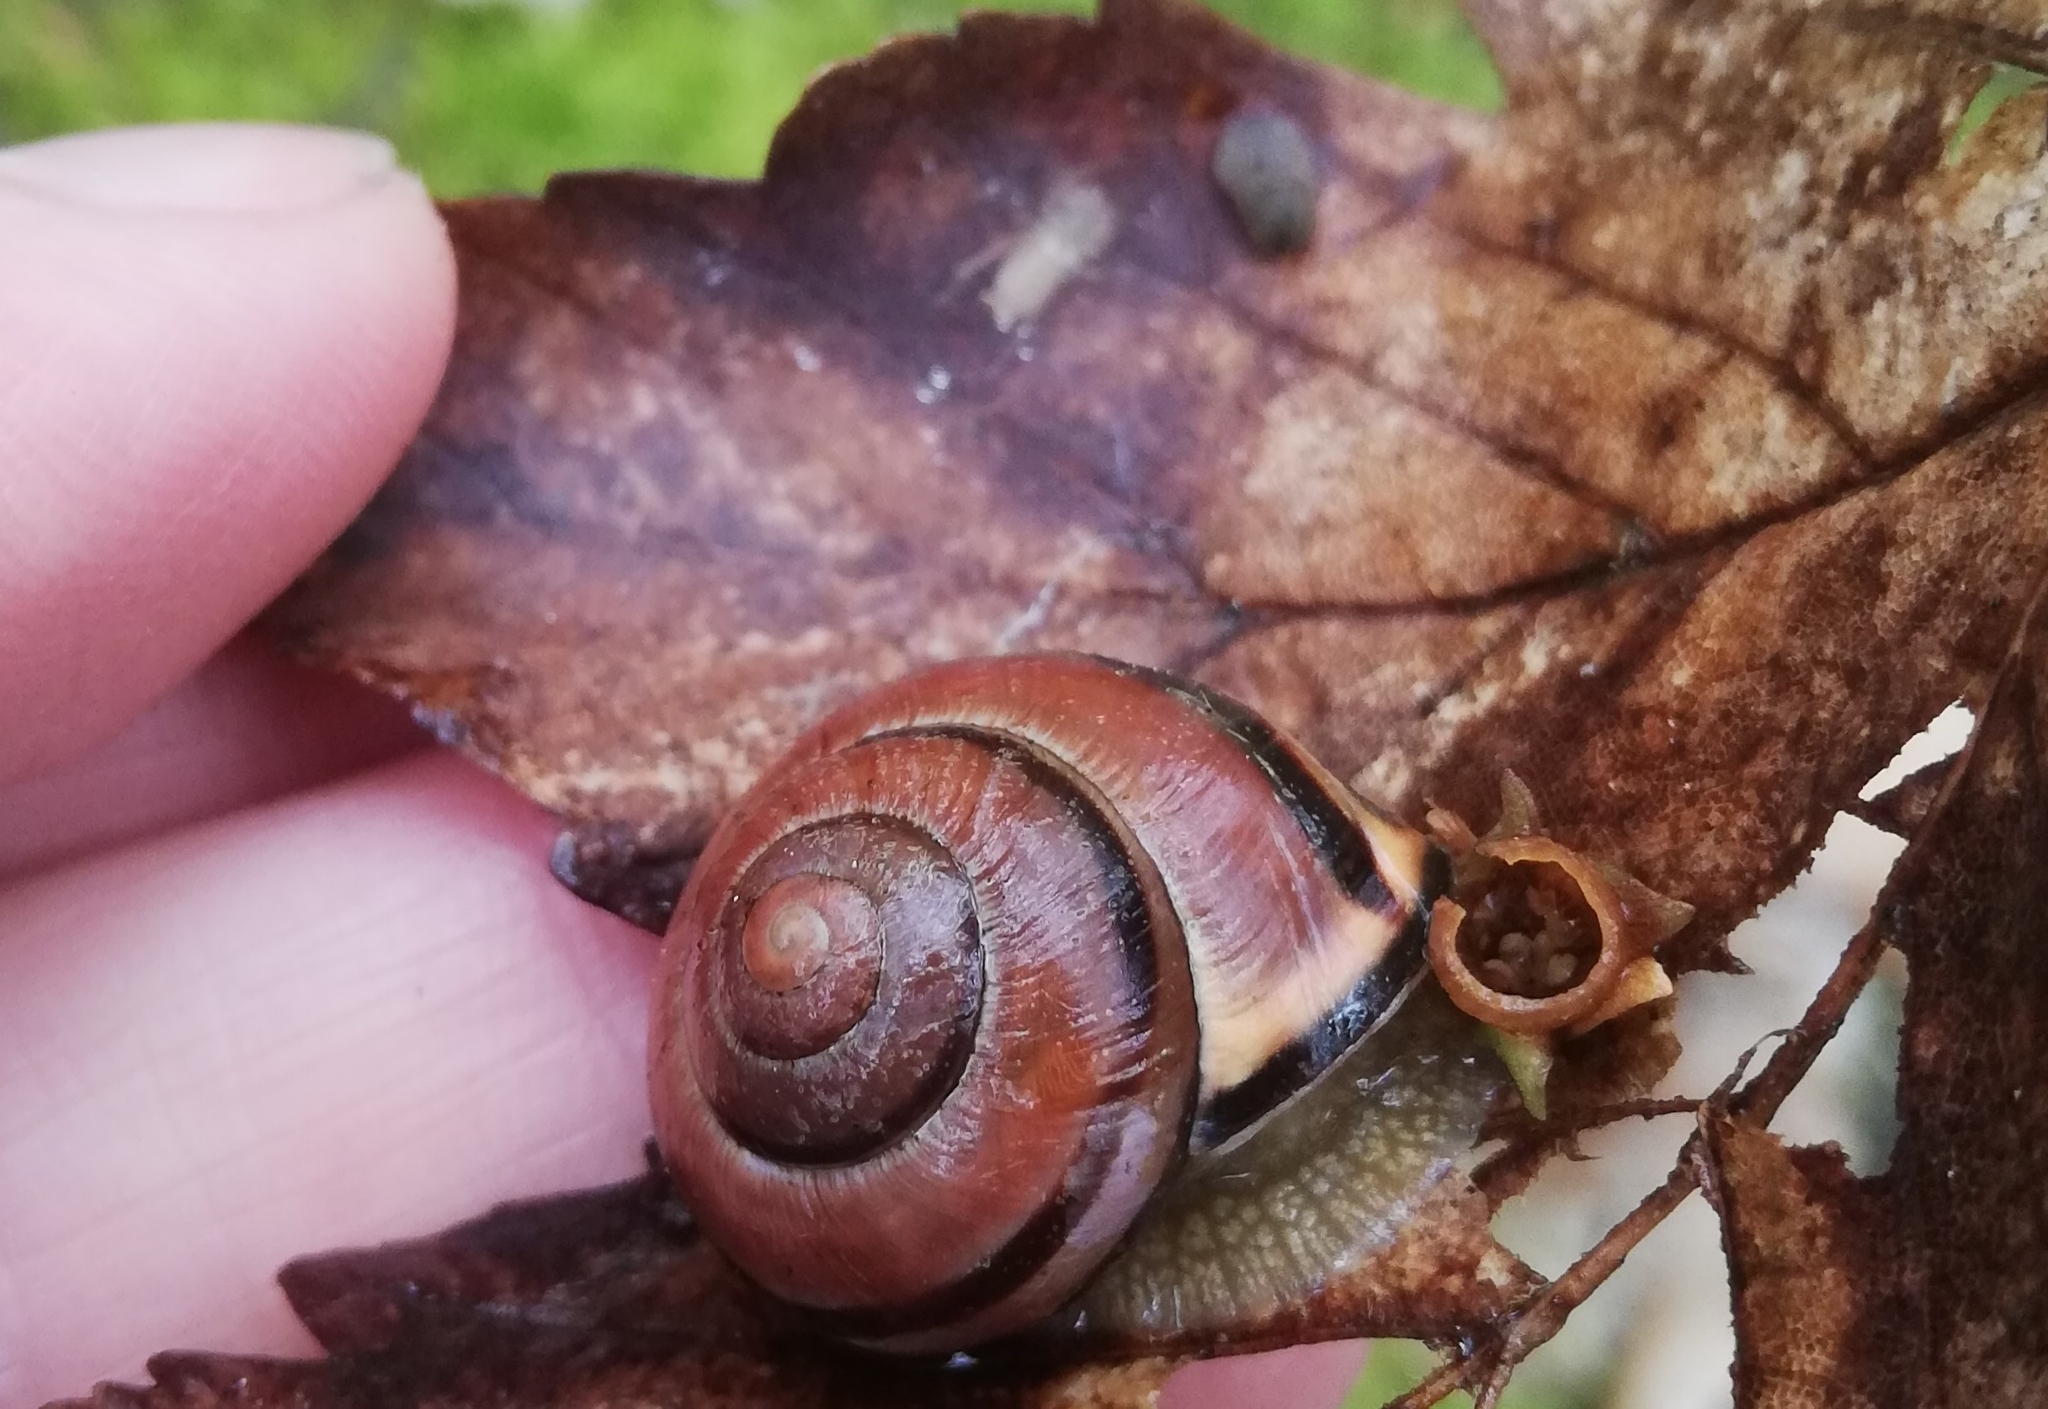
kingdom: Animalia
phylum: Mollusca
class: Gastropoda
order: Stylommatophora
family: Helicidae
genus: Cepaea
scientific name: Cepaea nemoralis
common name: Grovesnail
